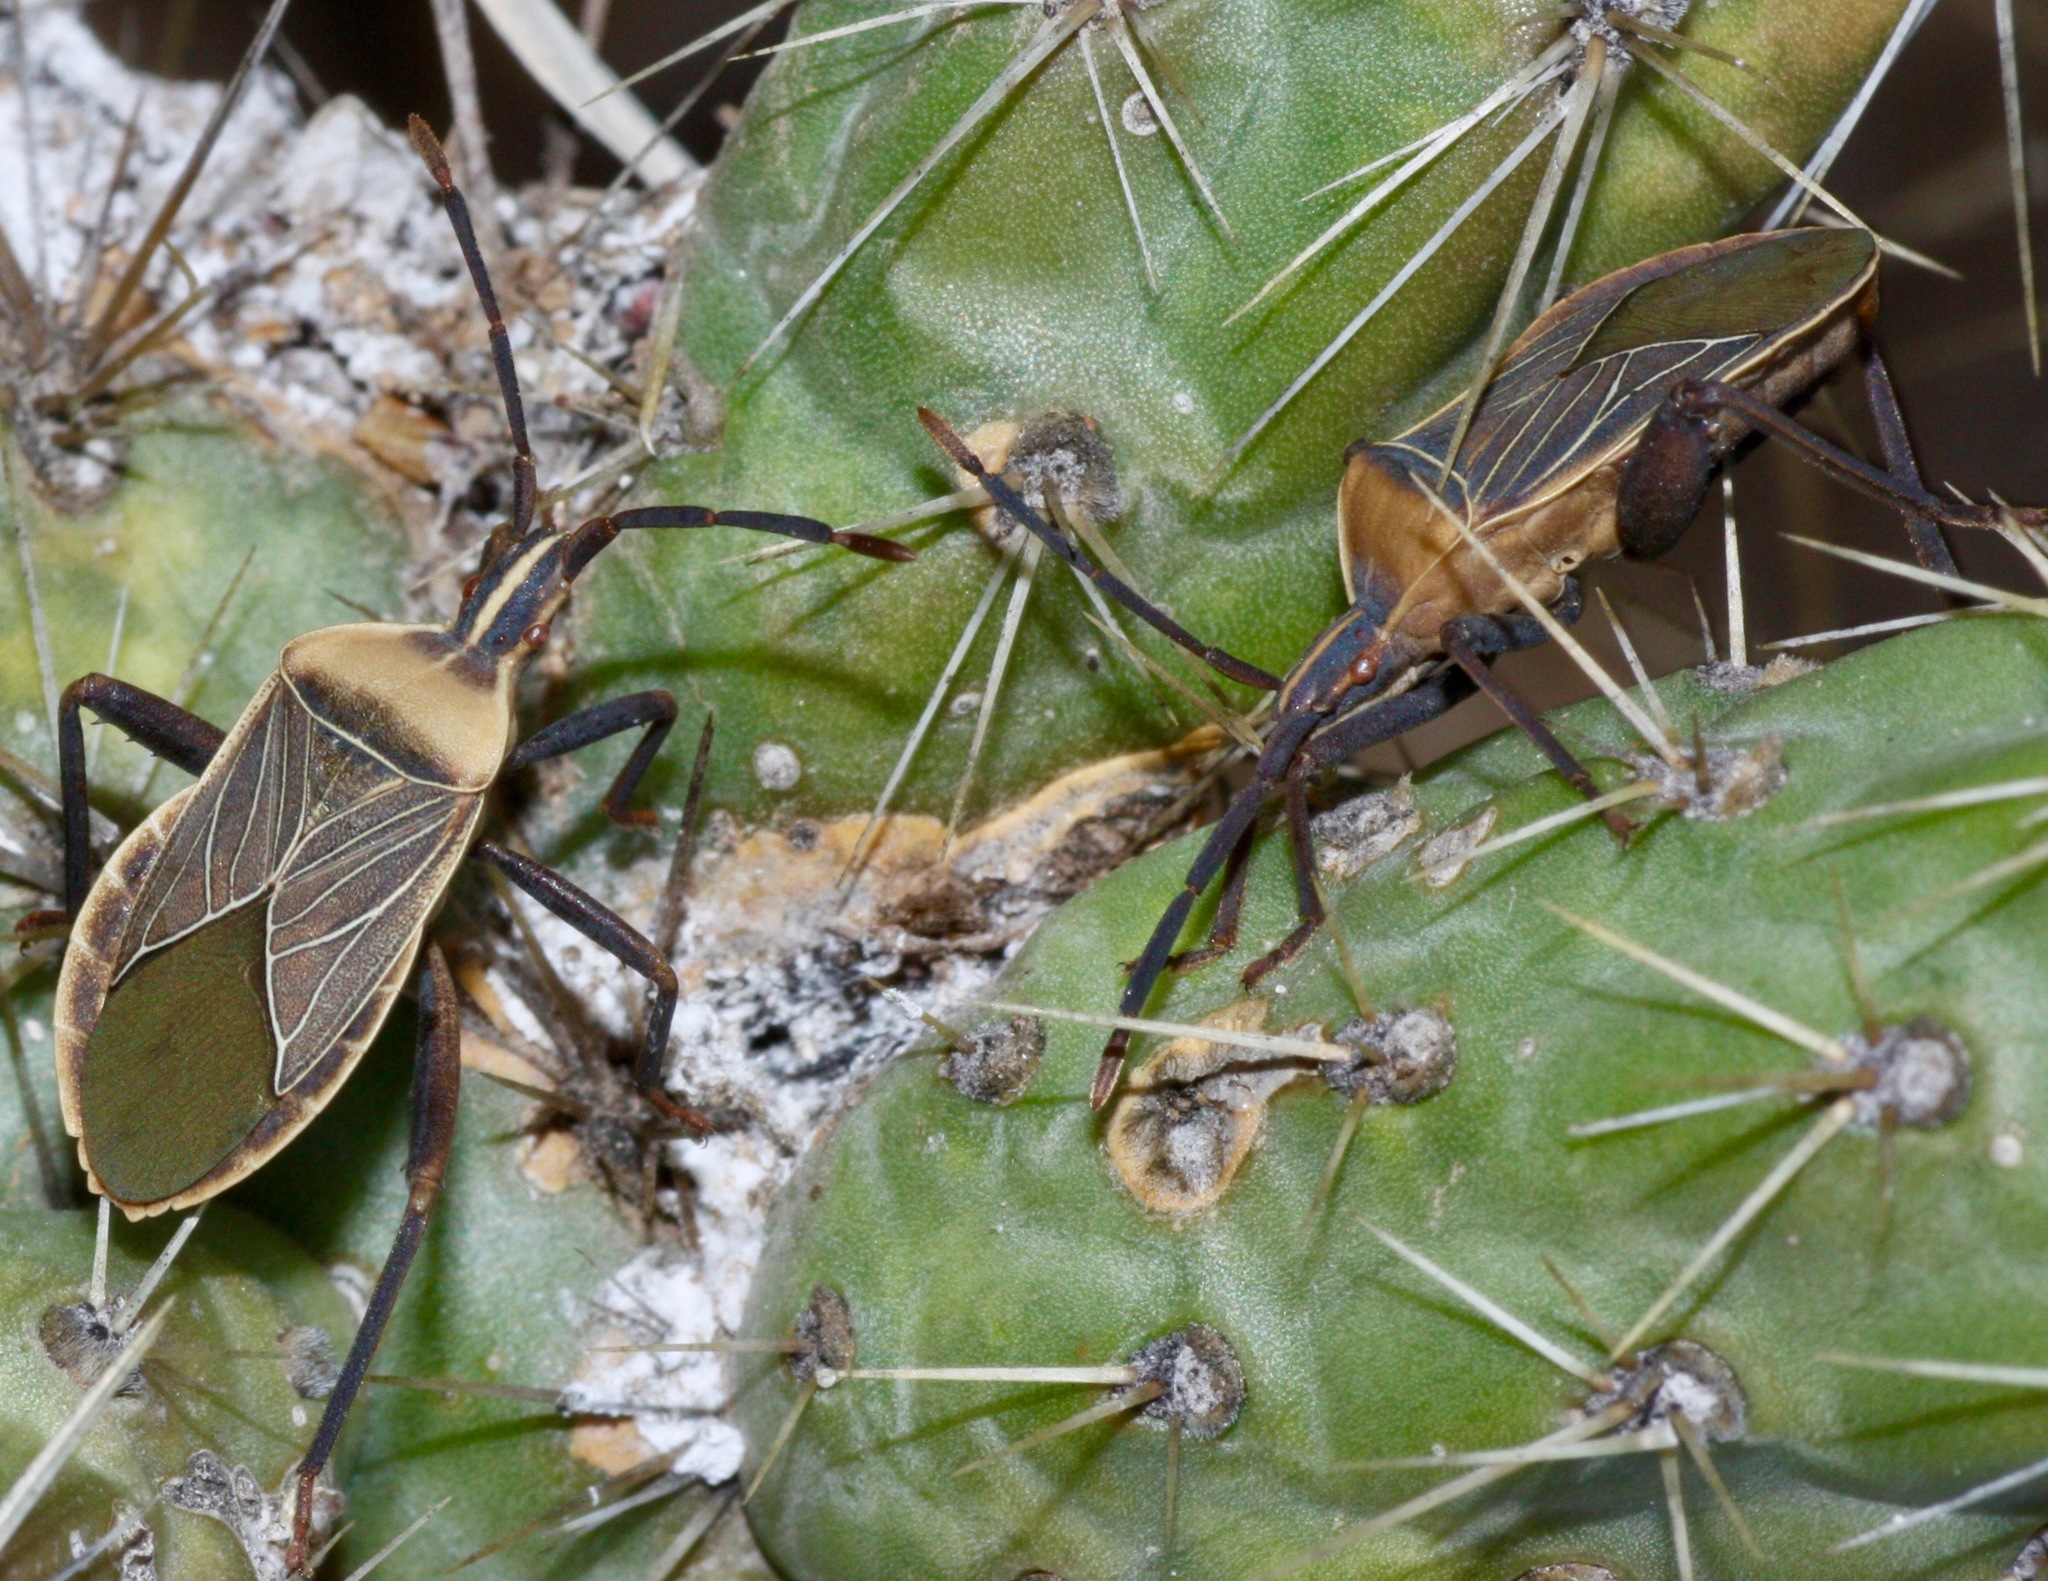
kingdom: Animalia
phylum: Arthropoda
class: Insecta
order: Hemiptera
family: Coreidae
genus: Chelinidea
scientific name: Chelinidea vittiger
